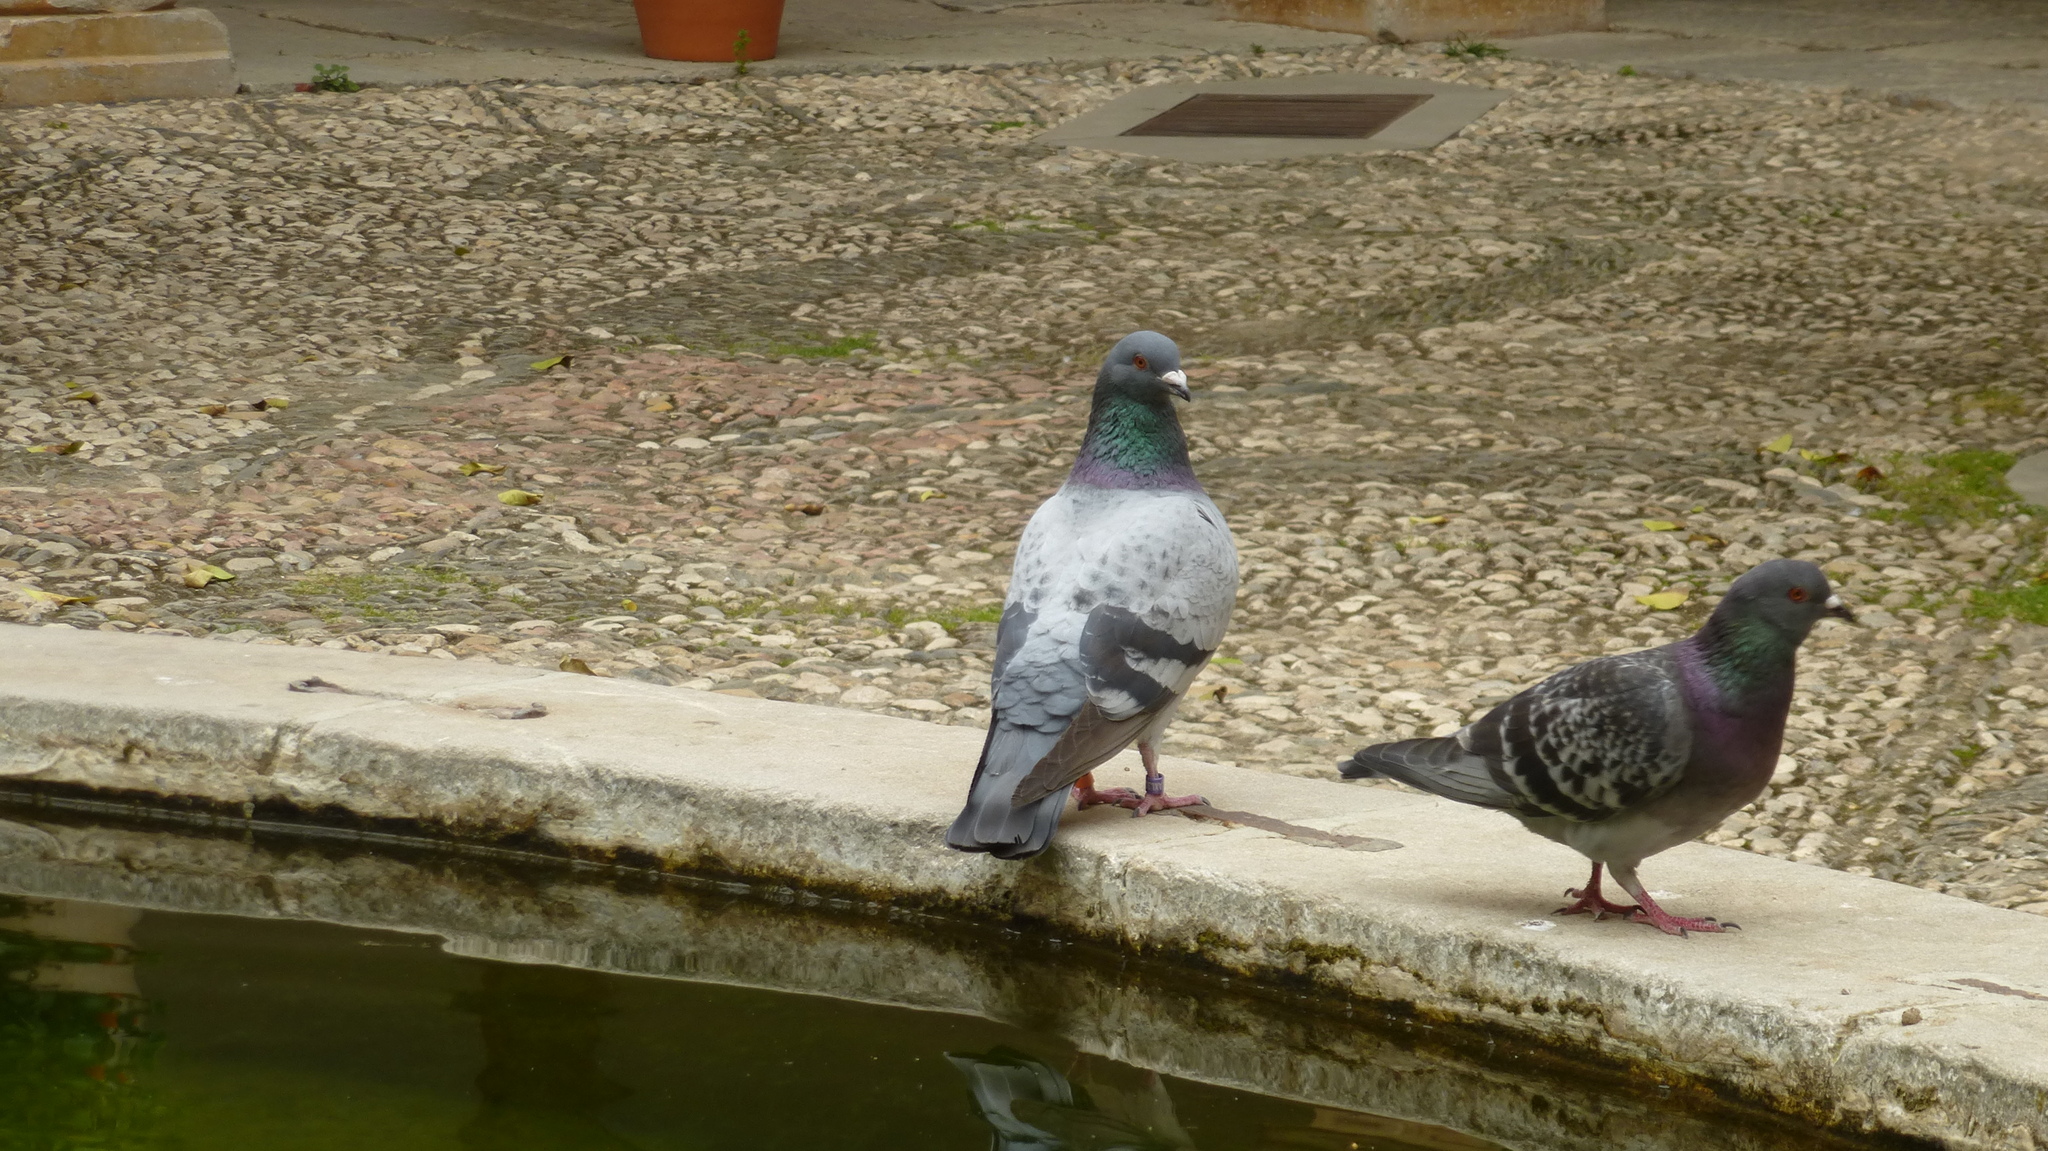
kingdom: Animalia
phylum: Chordata
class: Aves
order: Columbiformes
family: Columbidae
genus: Columba
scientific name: Columba livia
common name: Rock pigeon
